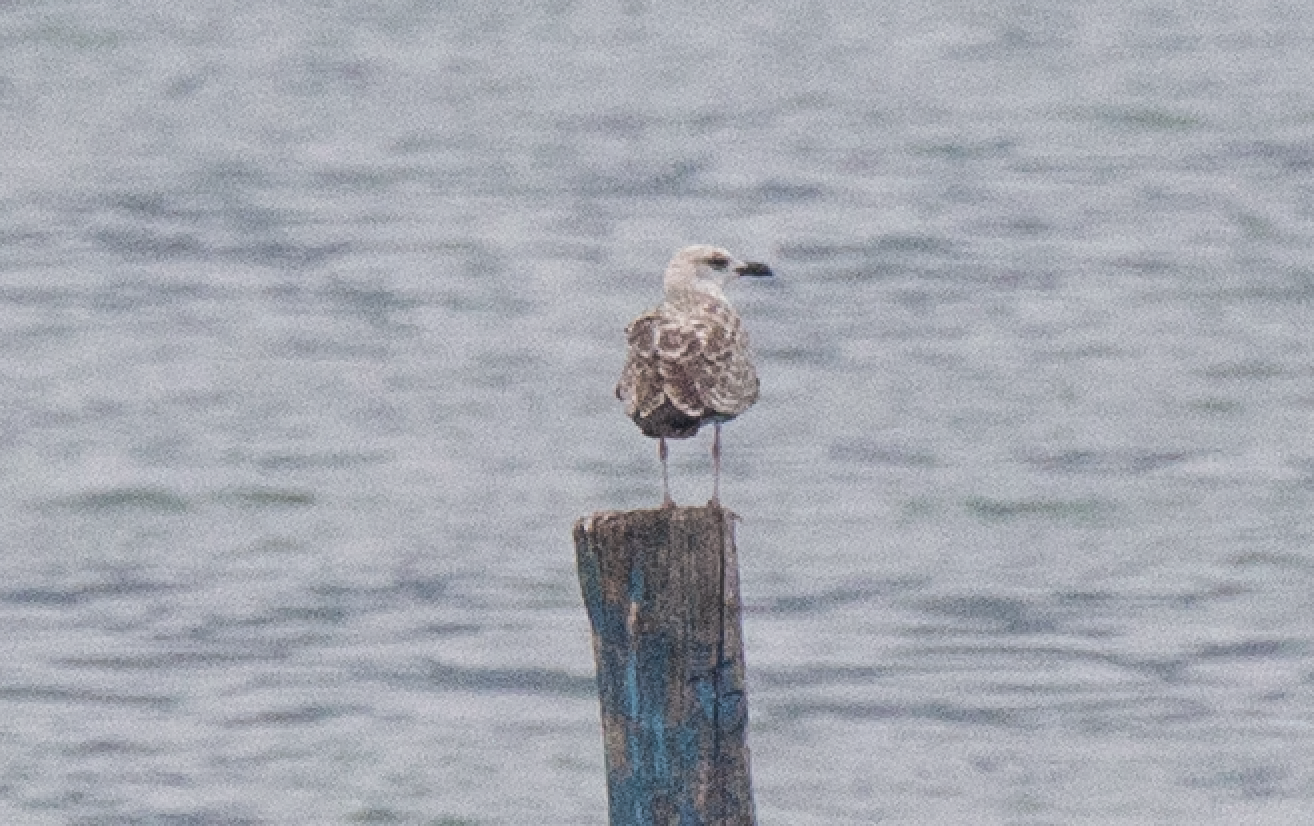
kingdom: Animalia
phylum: Chordata
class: Aves
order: Charadriiformes
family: Laridae
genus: Larus
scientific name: Larus michahellis
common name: Yellow-legged gull
